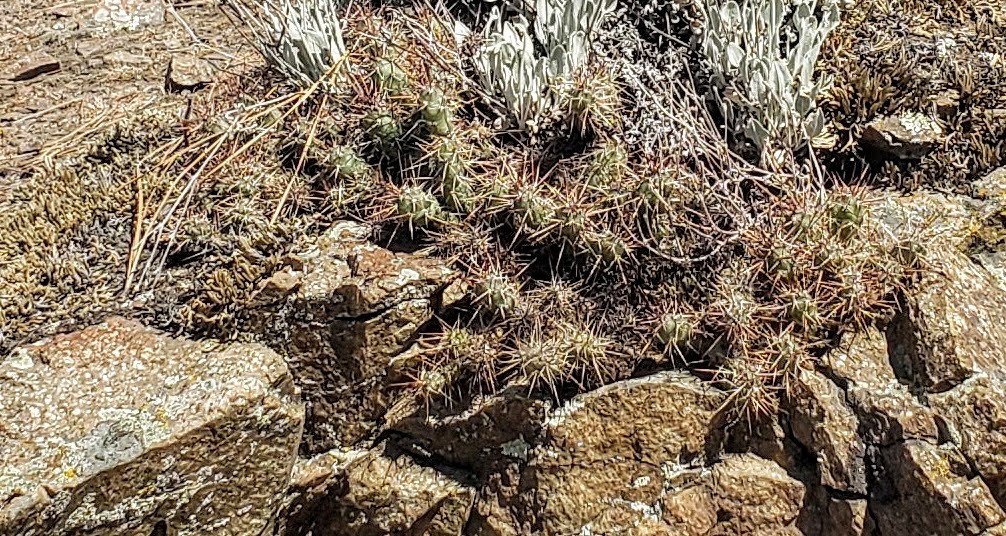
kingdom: Plantae
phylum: Tracheophyta
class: Magnoliopsida
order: Caryophyllales
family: Cactaceae
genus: Opuntia
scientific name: Opuntia fragilis
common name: Brittle cactus
